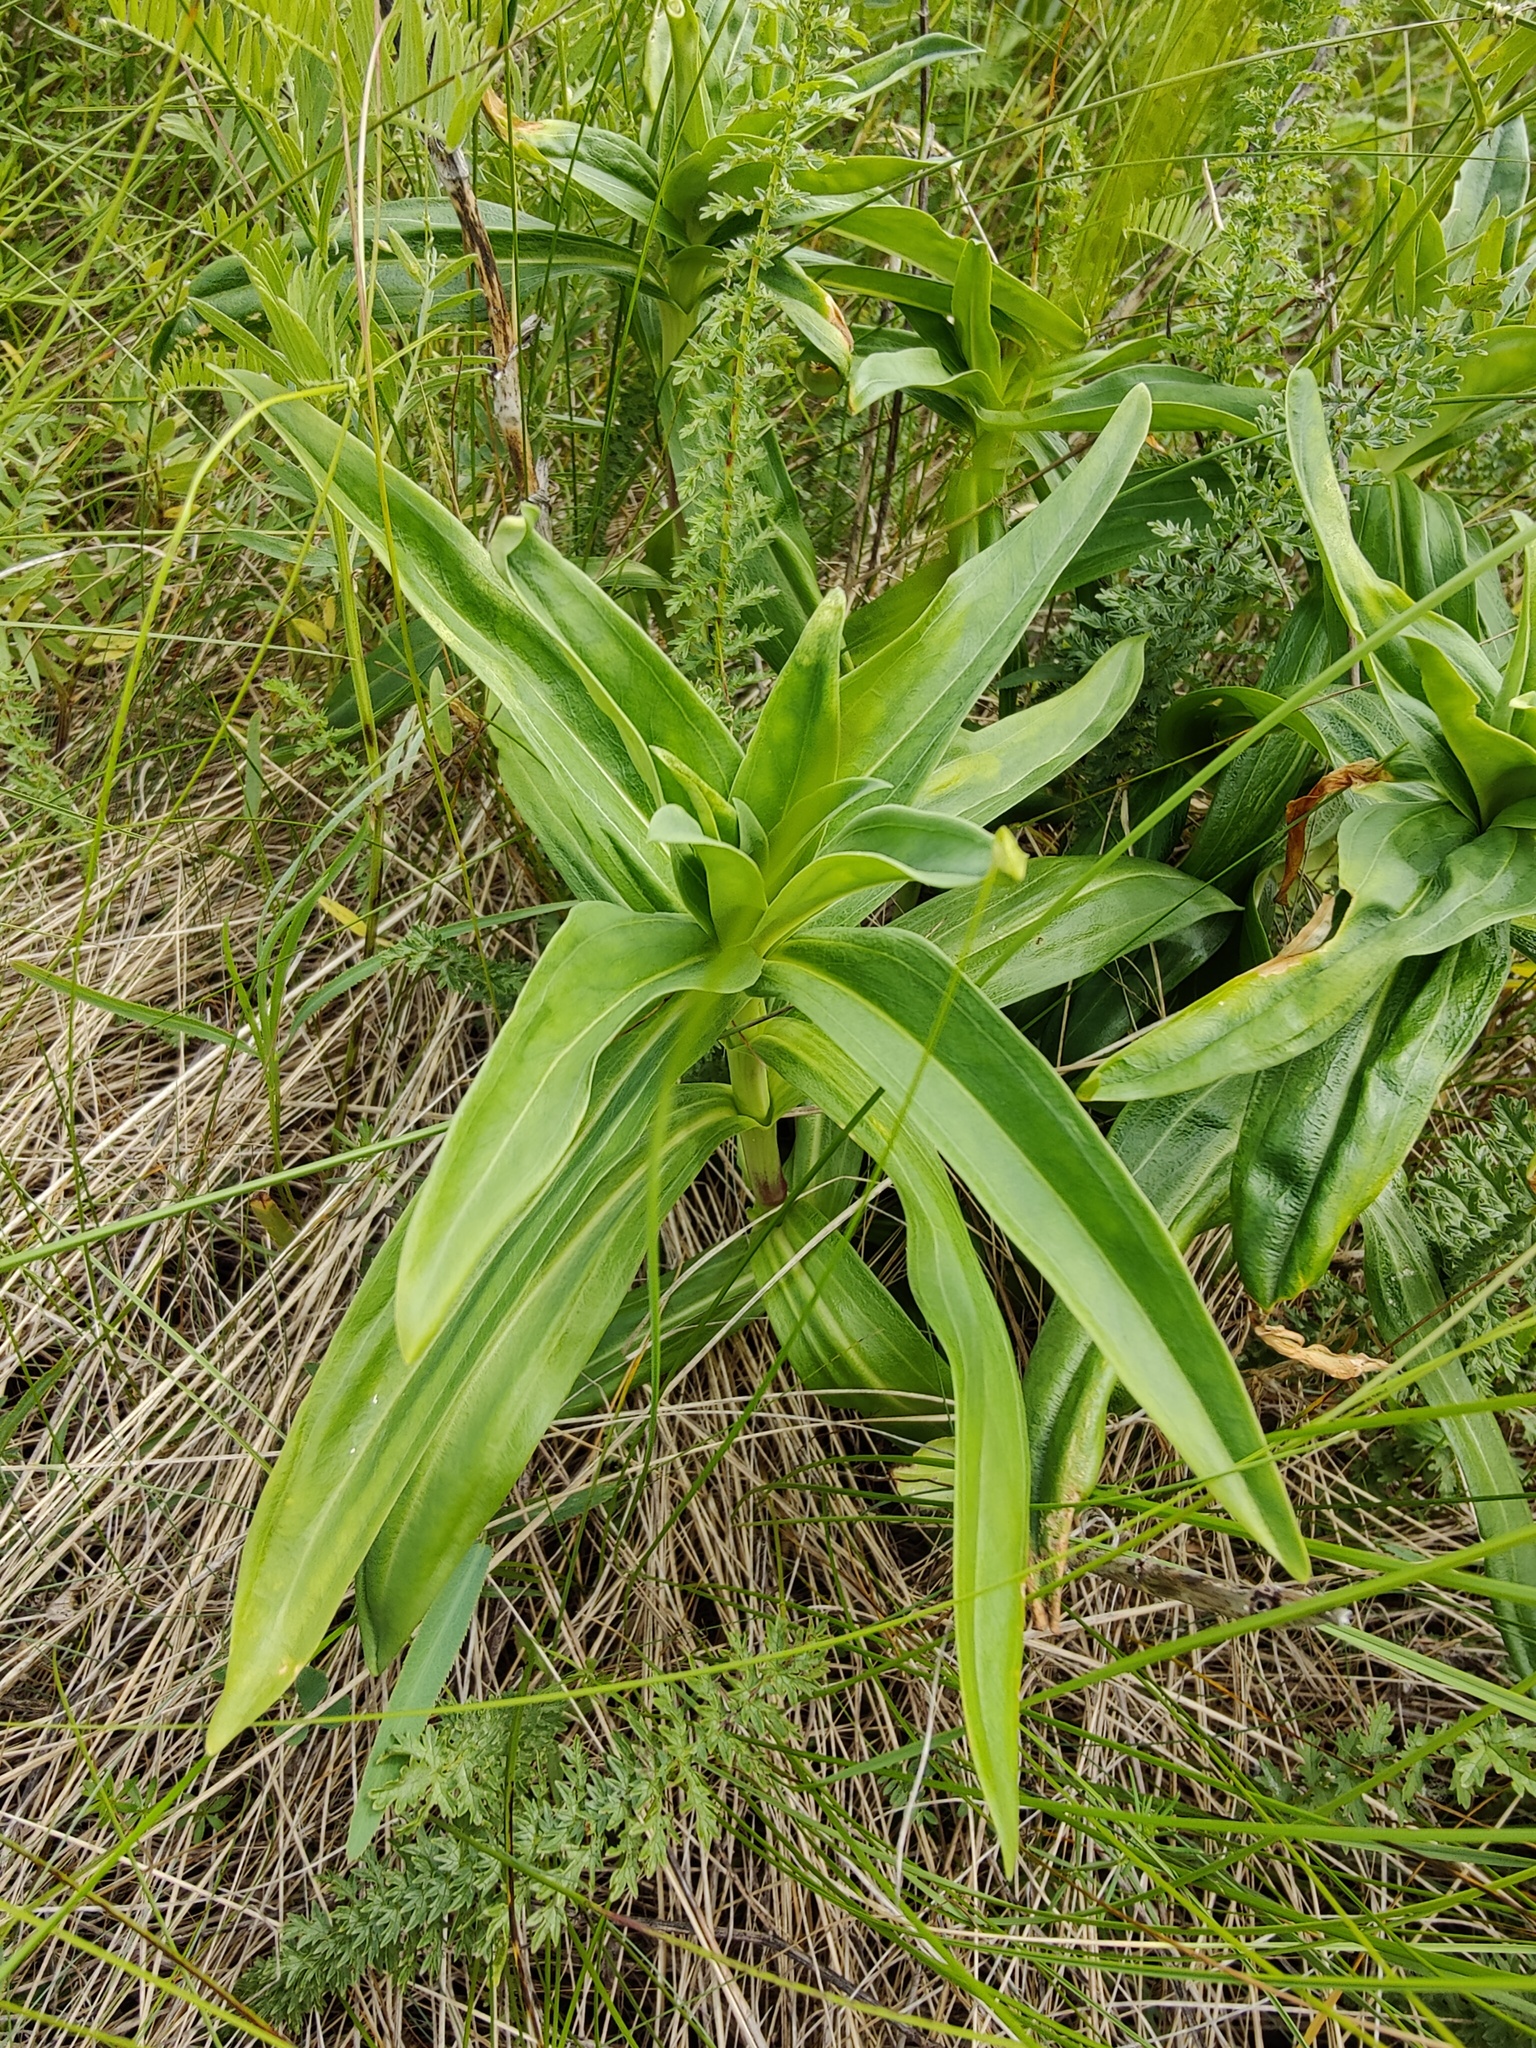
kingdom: Plantae
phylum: Tracheophyta
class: Magnoliopsida
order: Gentianales
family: Gentianaceae
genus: Gentiana
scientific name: Gentiana cruciata
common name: Cross gentian
